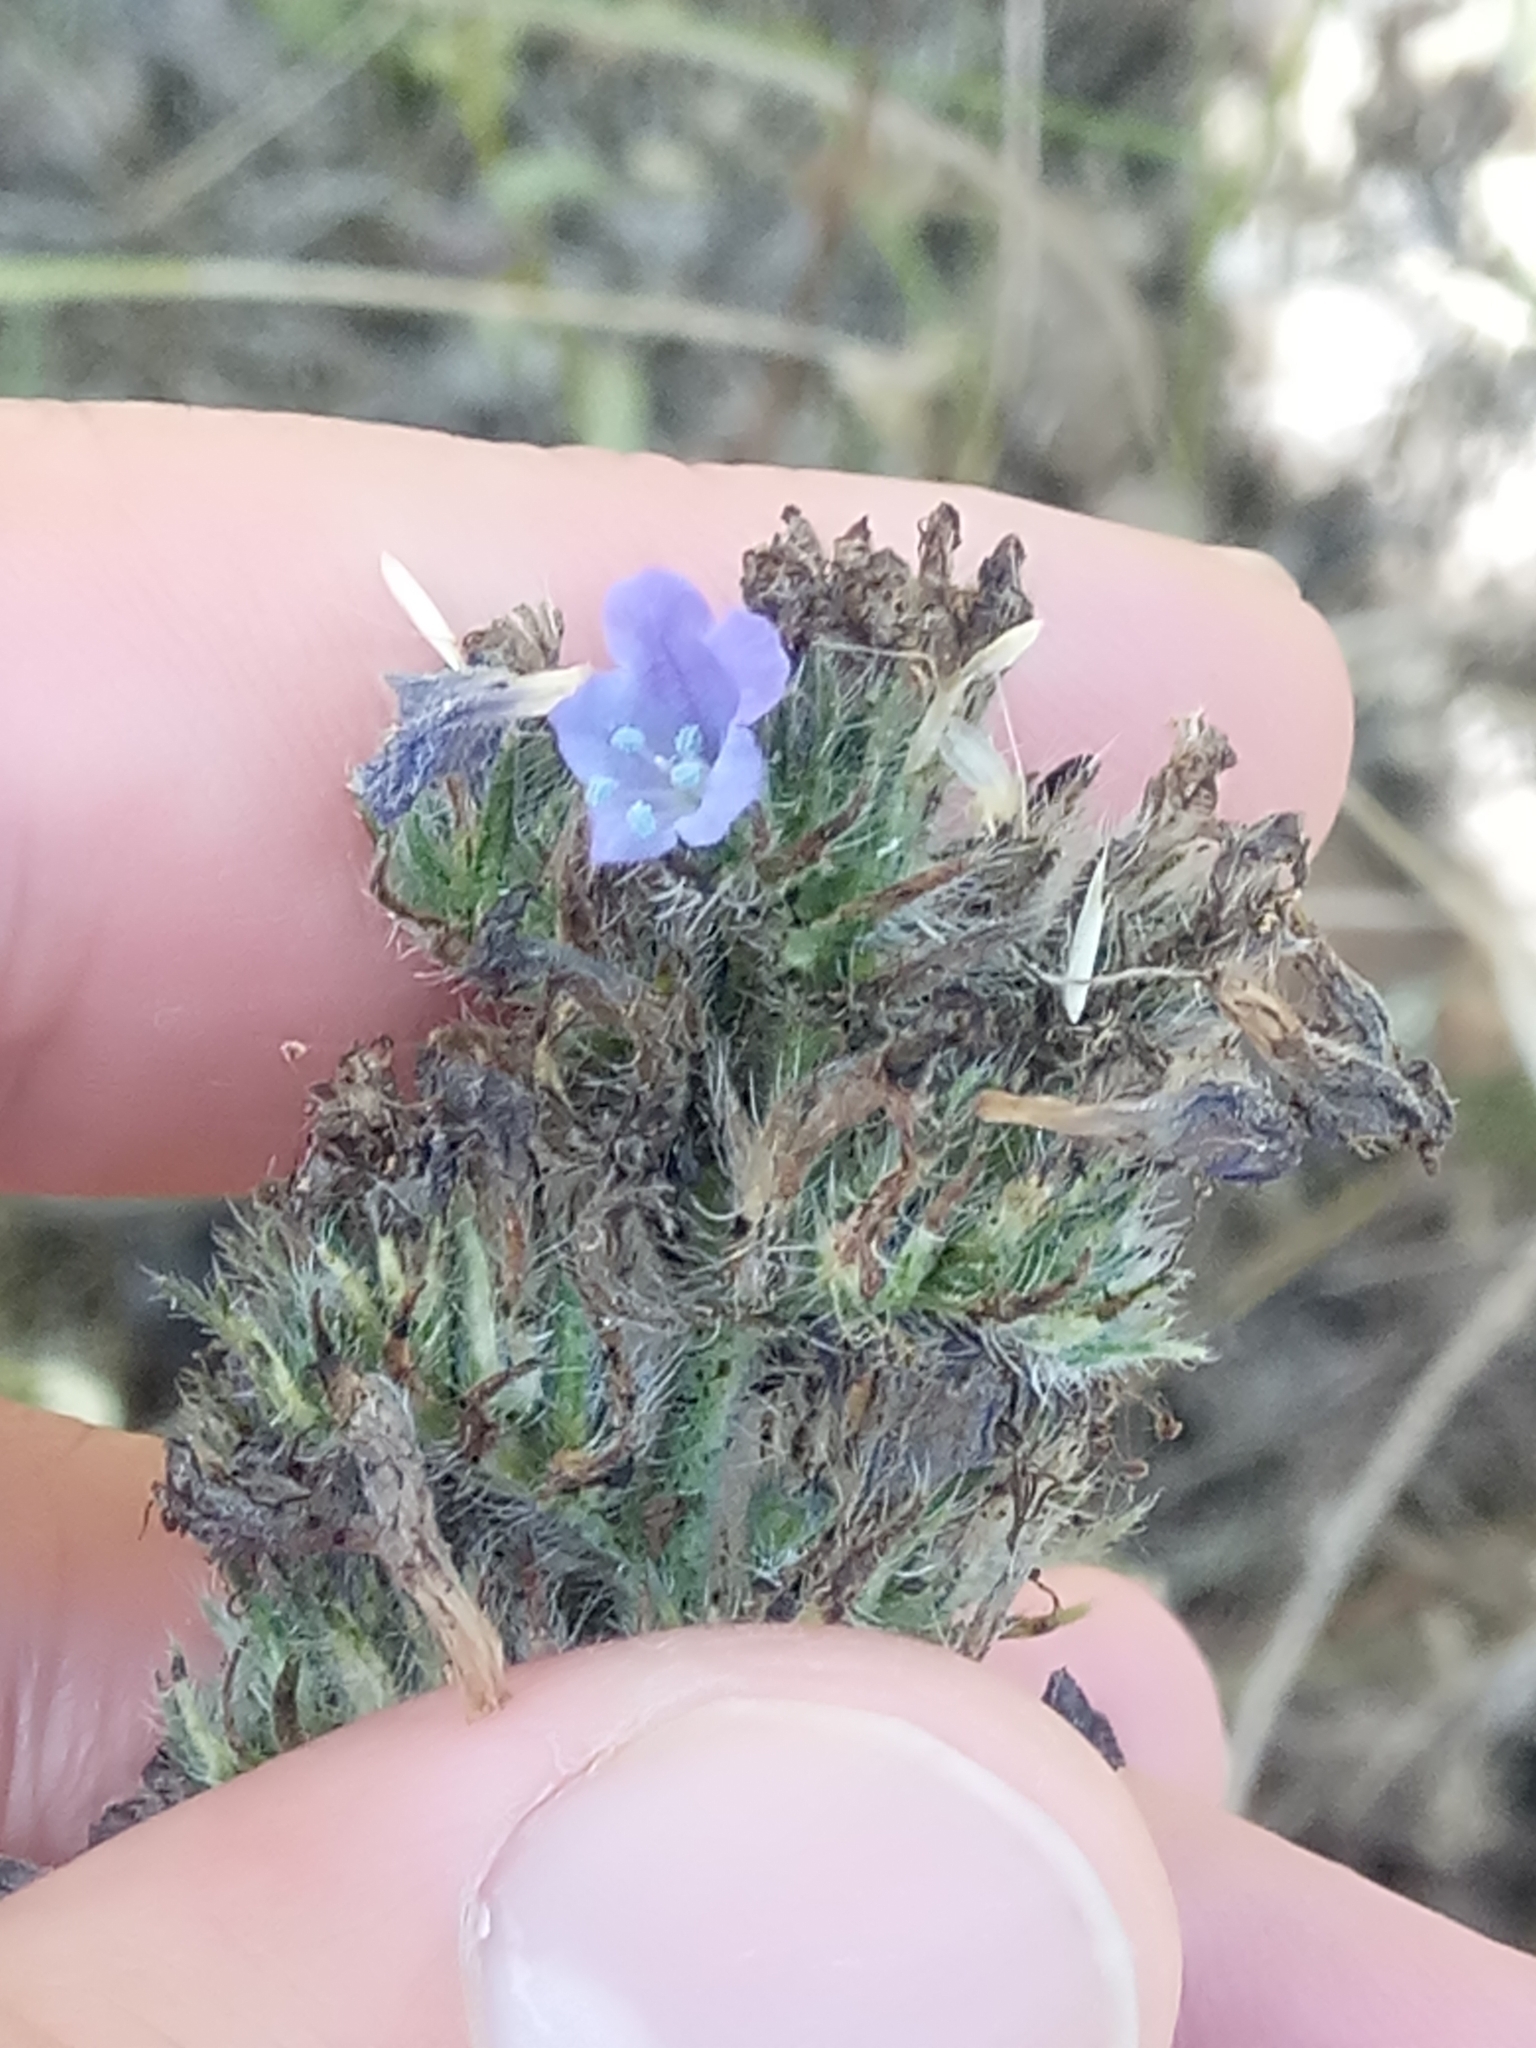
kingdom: Plantae
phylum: Tracheophyta
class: Magnoliopsida
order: Boraginales
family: Boraginaceae
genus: Echium
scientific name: Echium vulgare
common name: Common viper's bugloss
